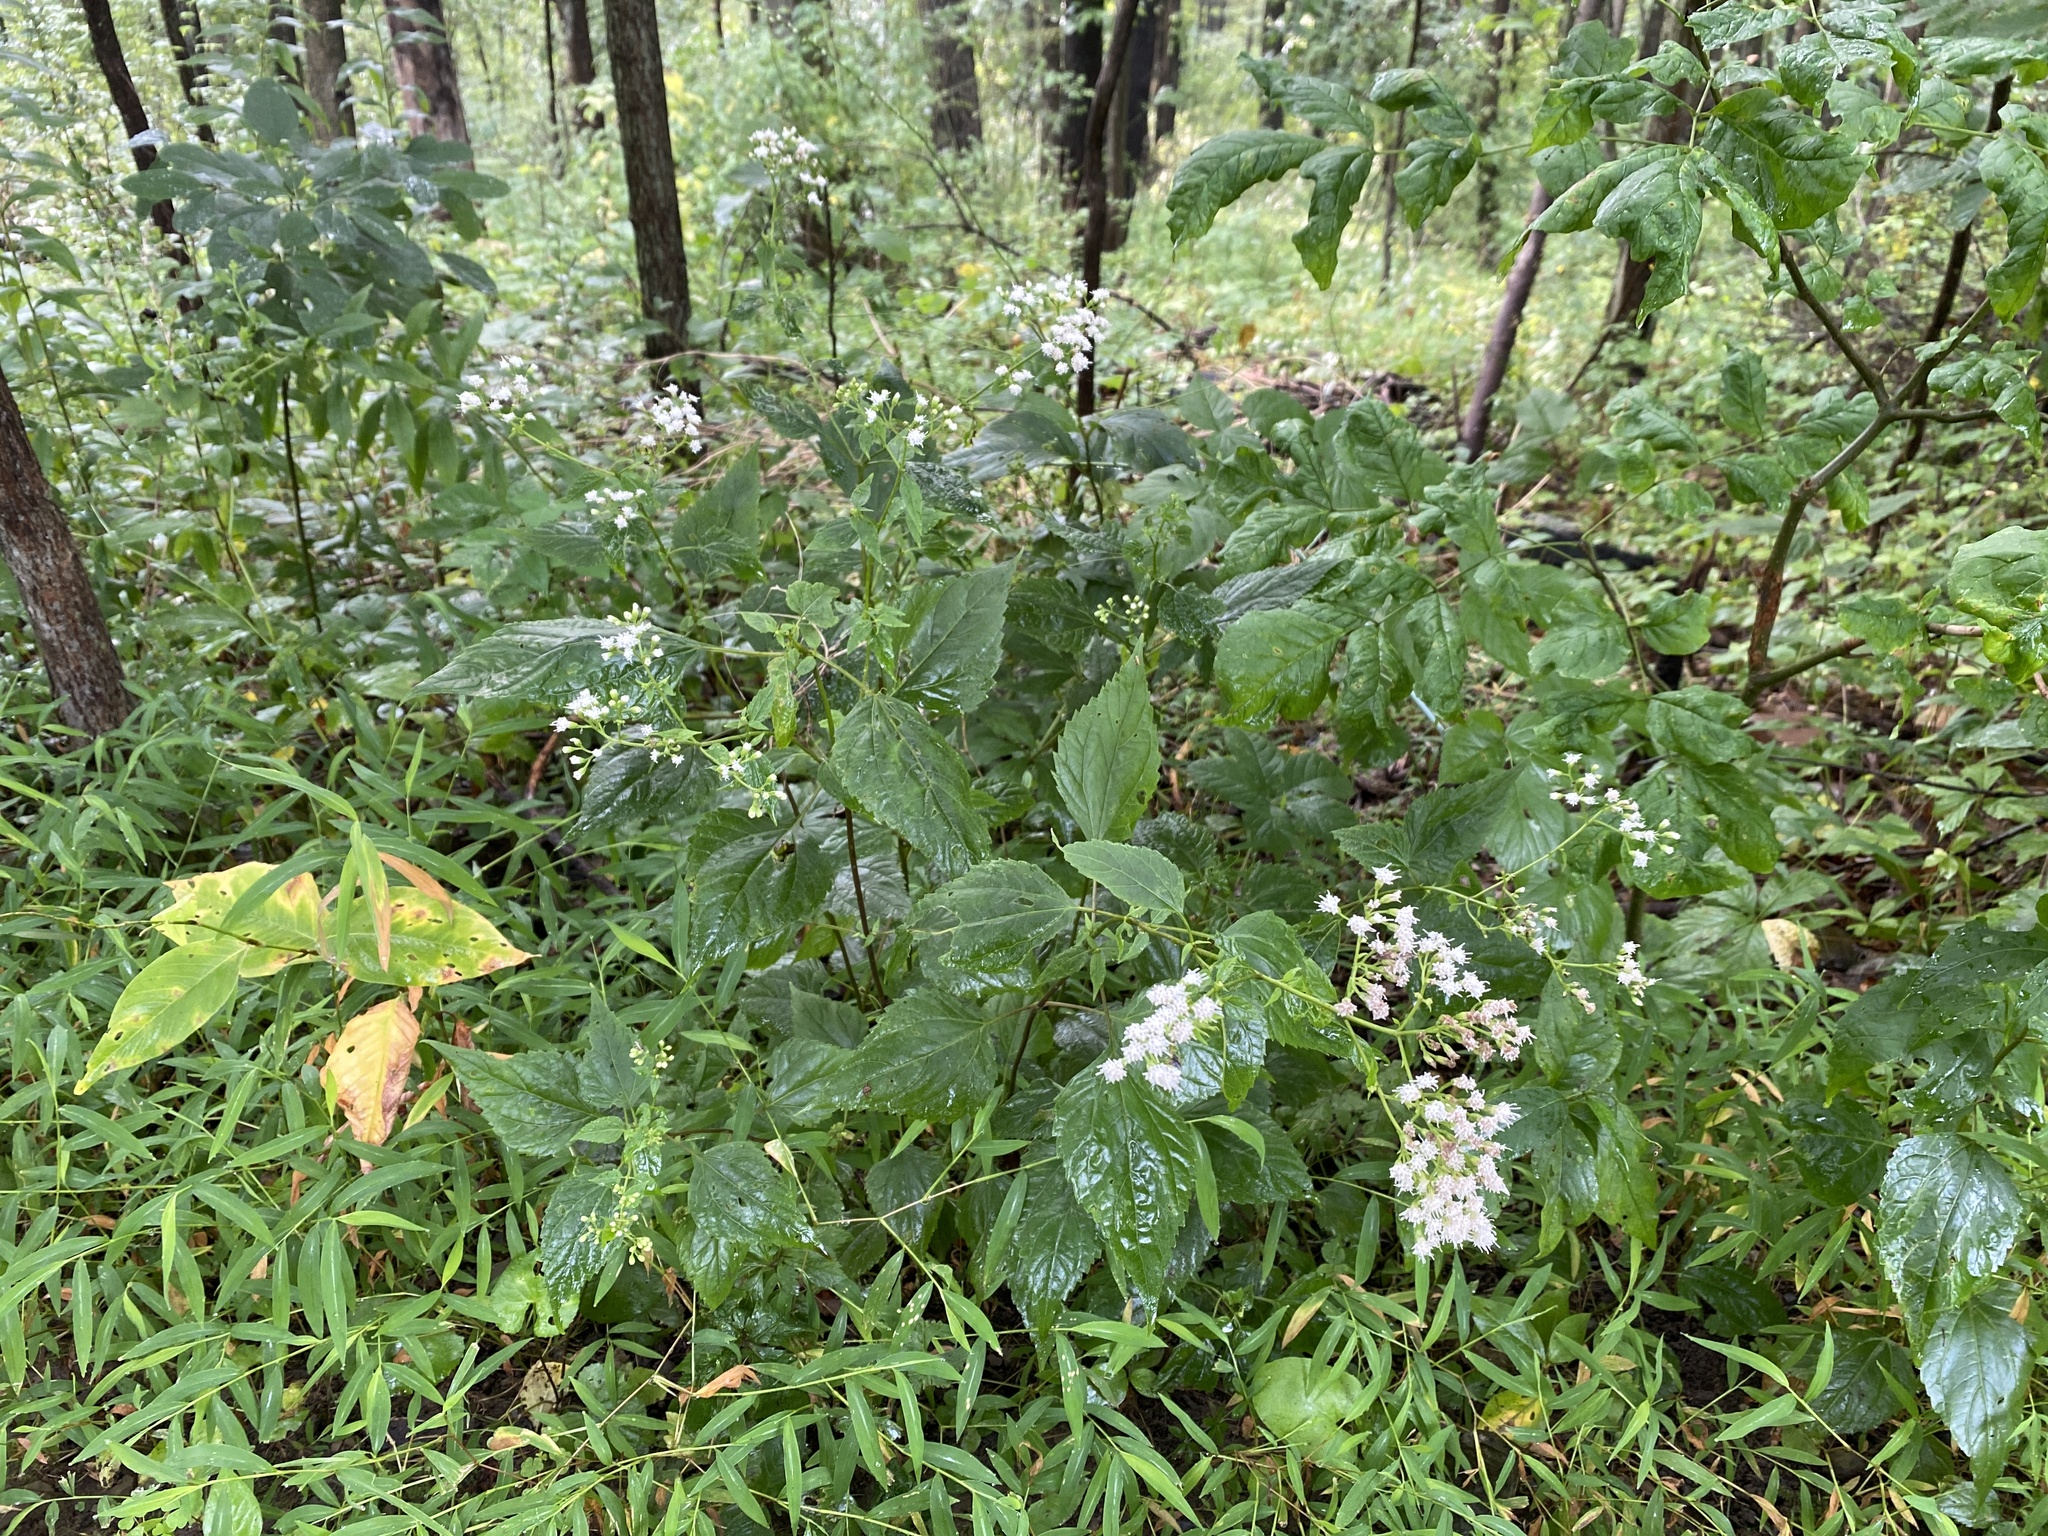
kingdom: Plantae
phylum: Tracheophyta
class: Magnoliopsida
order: Asterales
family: Asteraceae
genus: Ageratina
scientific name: Ageratina altissima
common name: White snakeroot
